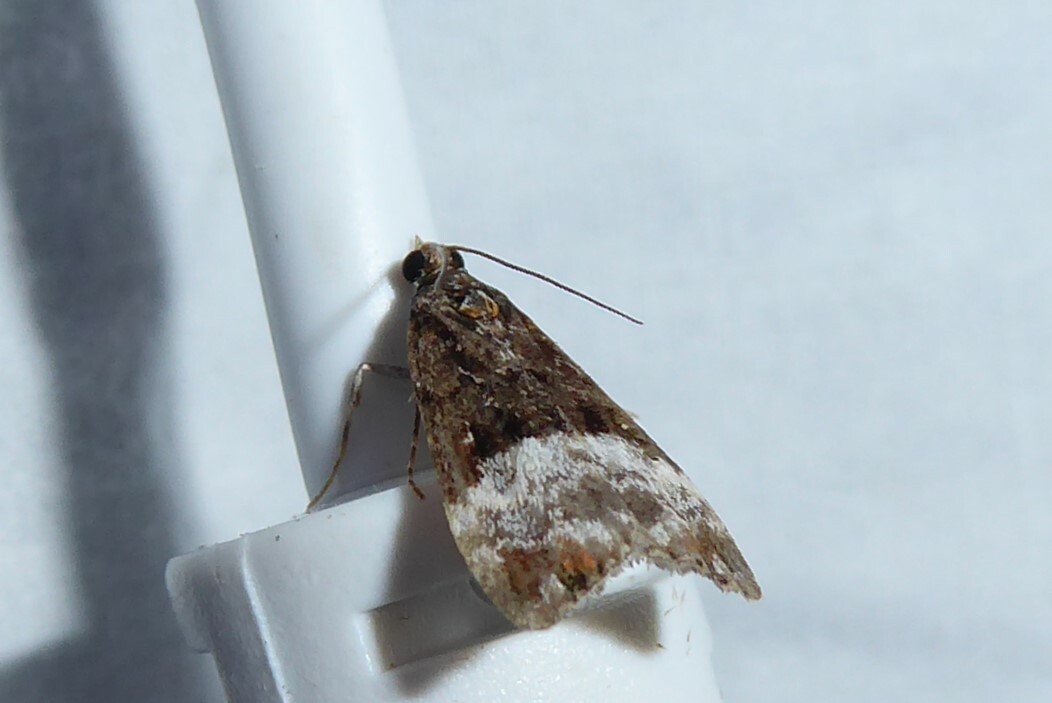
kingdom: Animalia
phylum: Arthropoda
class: Insecta
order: Lepidoptera
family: Crambidae
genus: Scoparia
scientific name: Scoparia minusculalis
